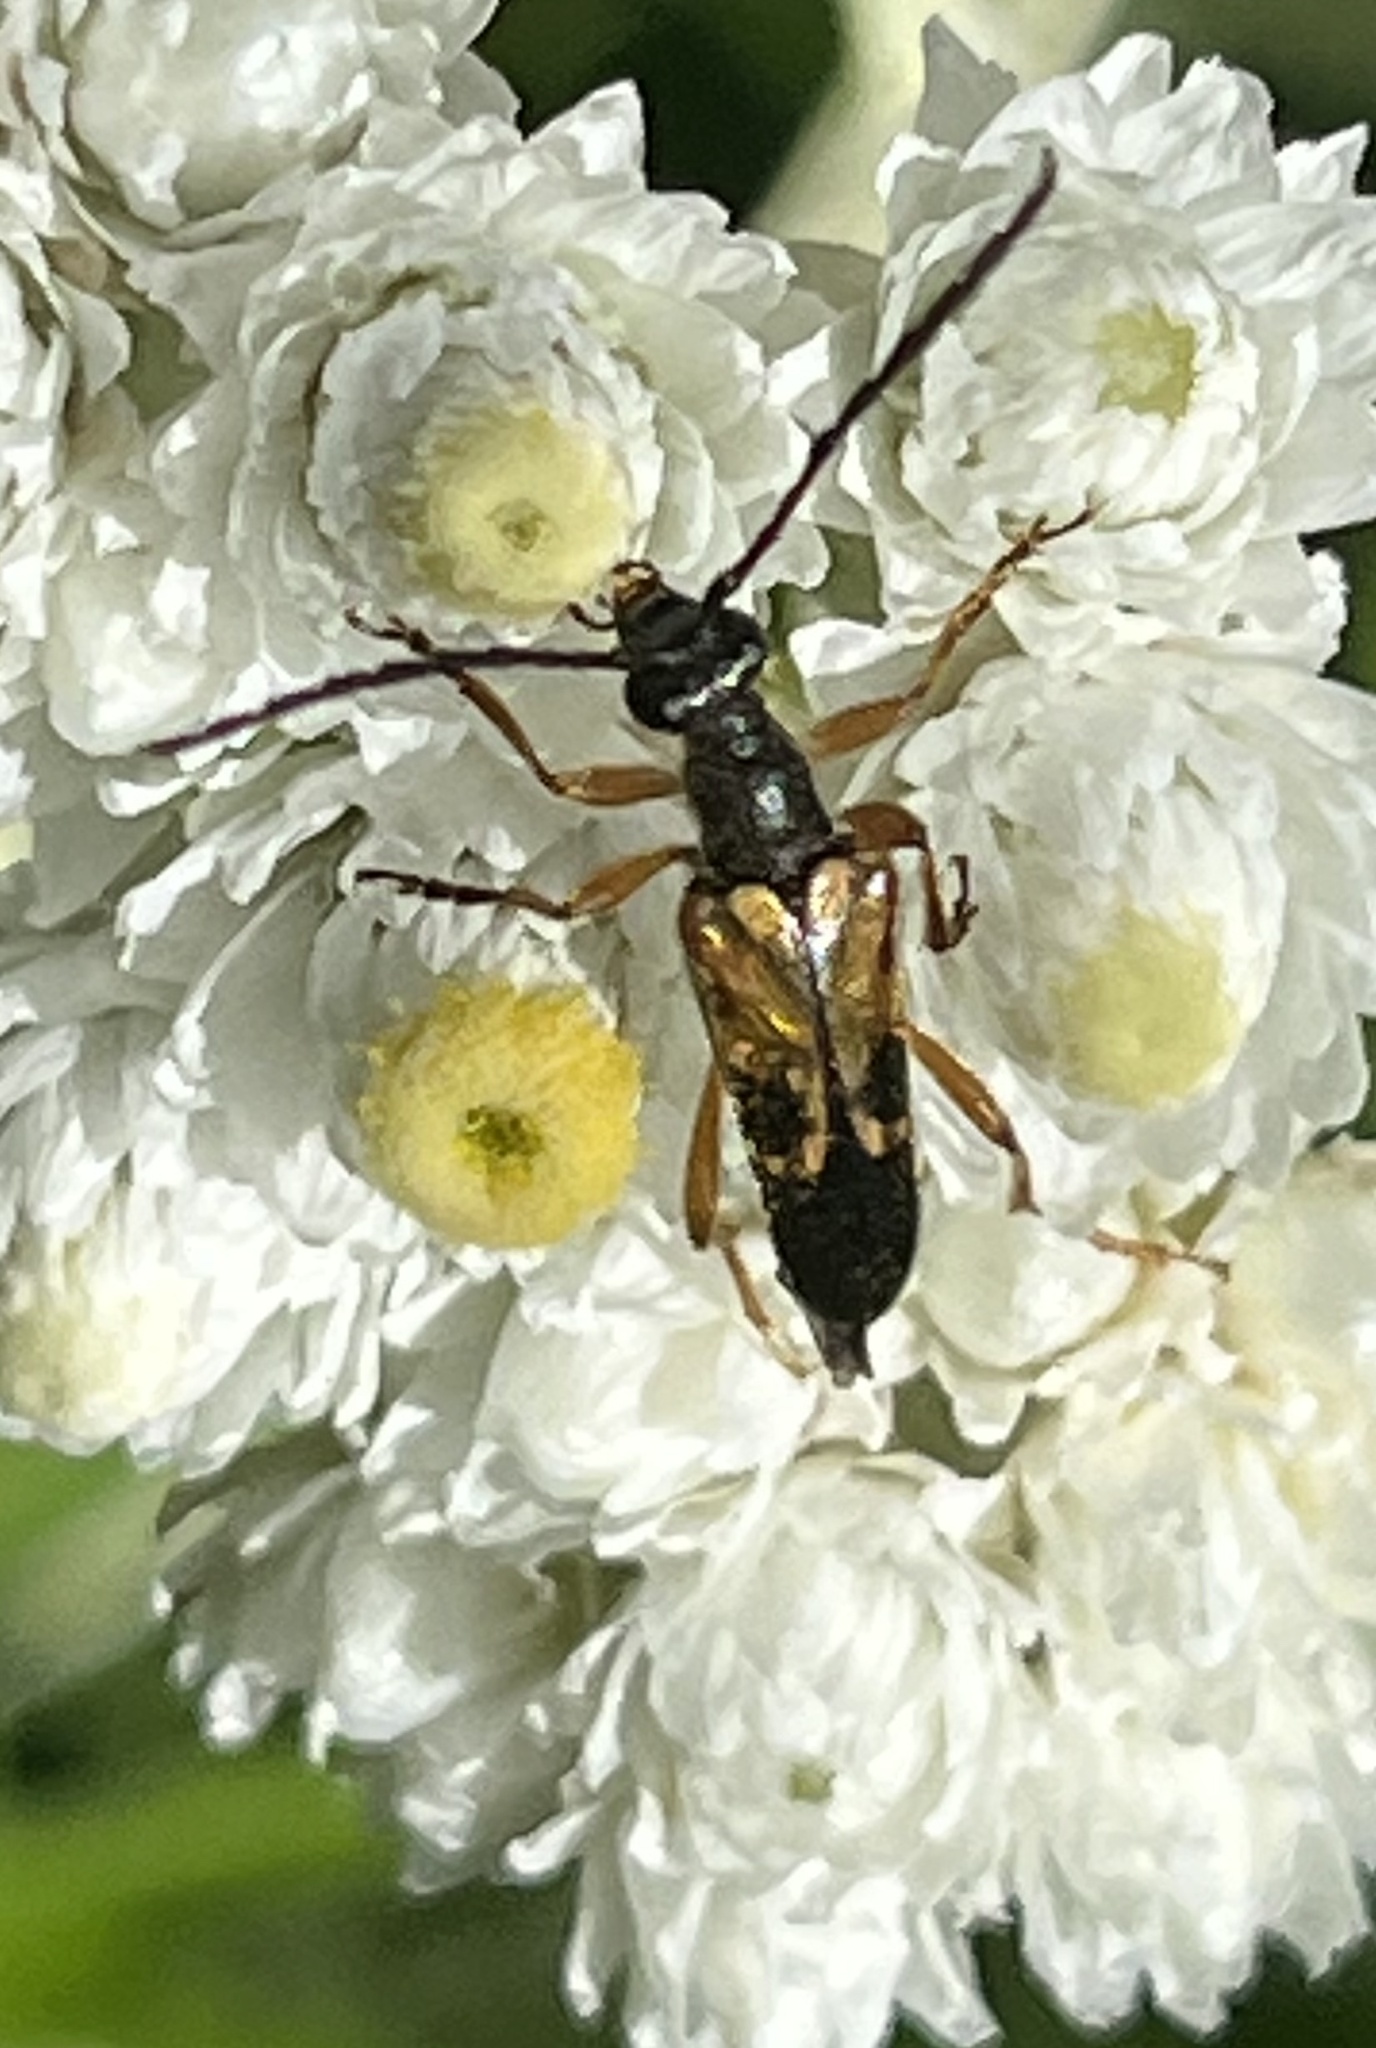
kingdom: Animalia
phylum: Arthropoda
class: Insecta
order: Coleoptera
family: Cerambycidae
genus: Xestoleptura
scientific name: Xestoleptura crassipes
